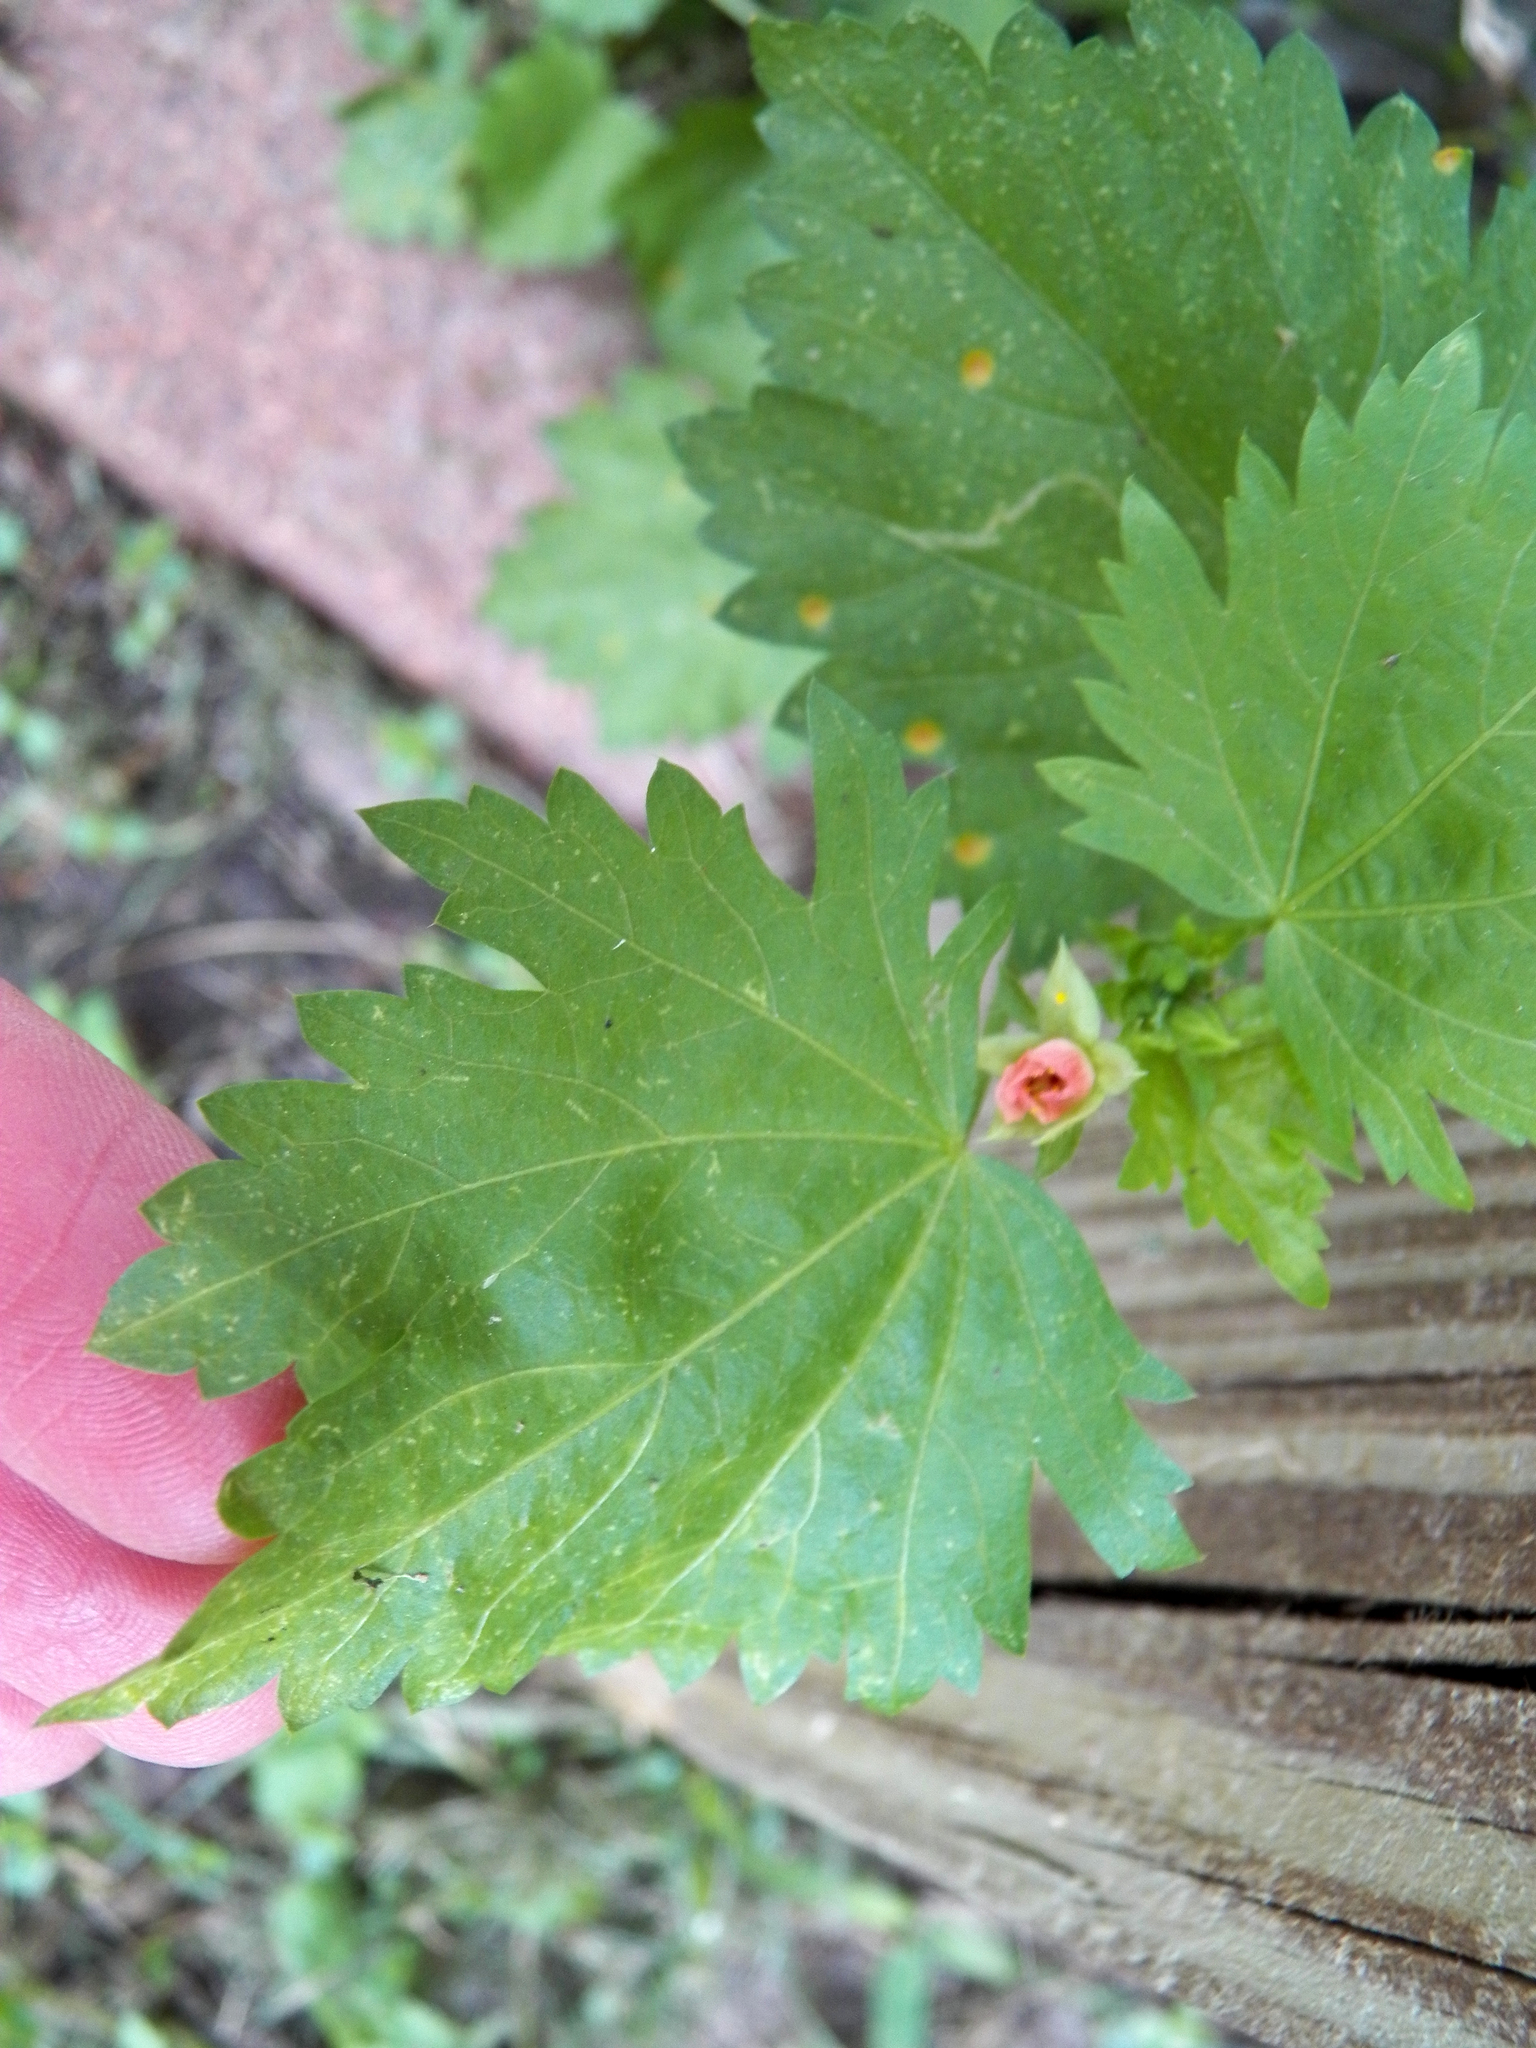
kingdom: Plantae
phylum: Tracheophyta
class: Magnoliopsida
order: Malvales
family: Malvaceae
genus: Modiola
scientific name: Modiola caroliniana
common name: Carolina bristlemallow
